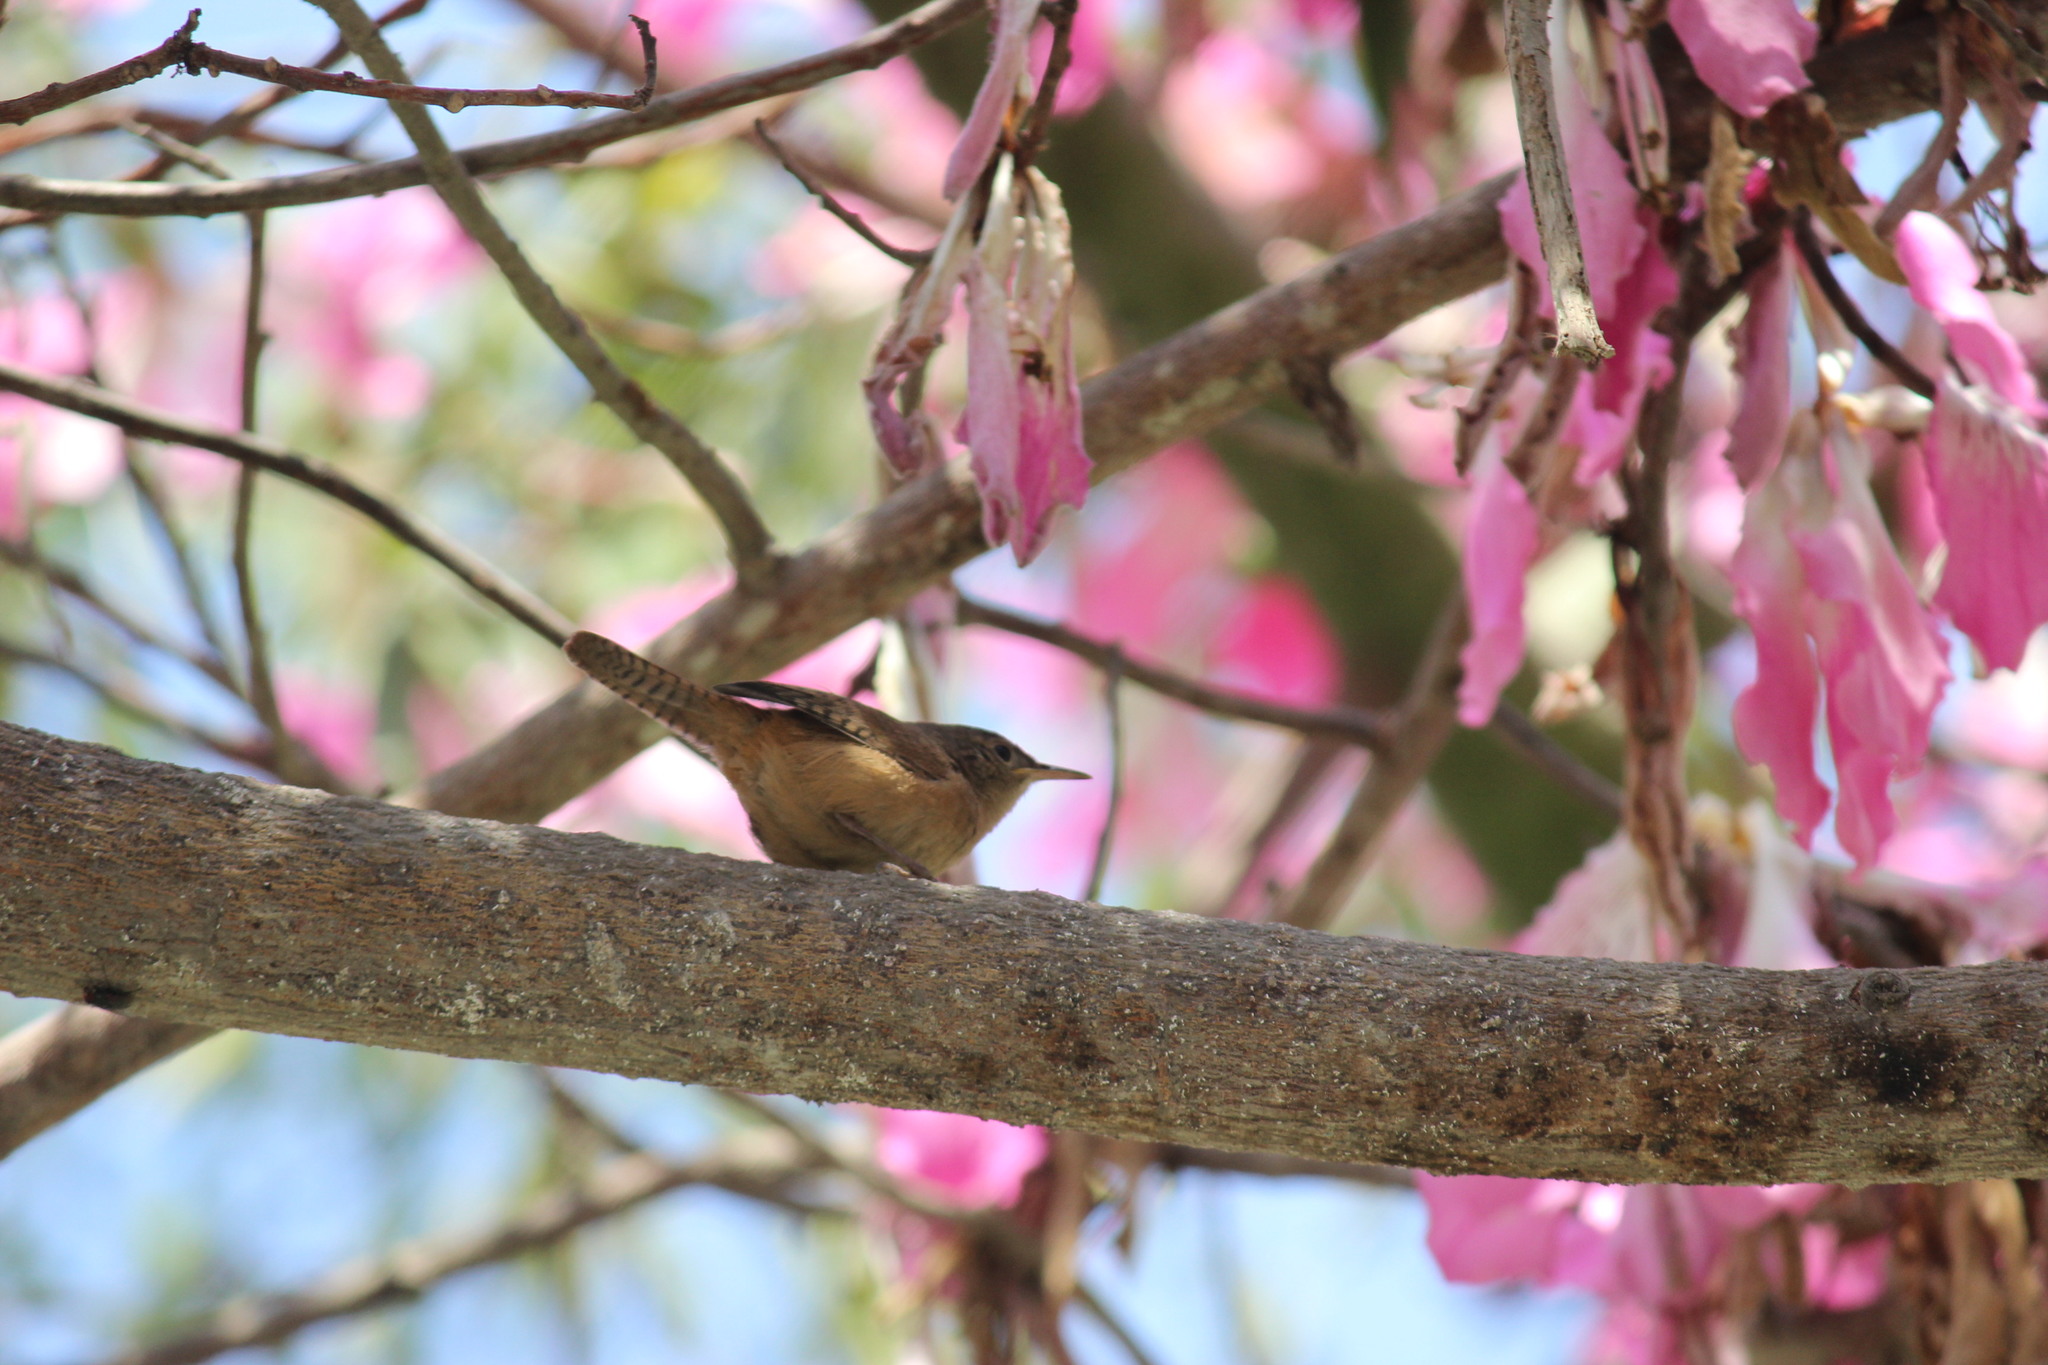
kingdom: Animalia
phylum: Chordata
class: Aves
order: Passeriformes
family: Troglodytidae
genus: Troglodytes
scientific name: Troglodytes aedon
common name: House wren
